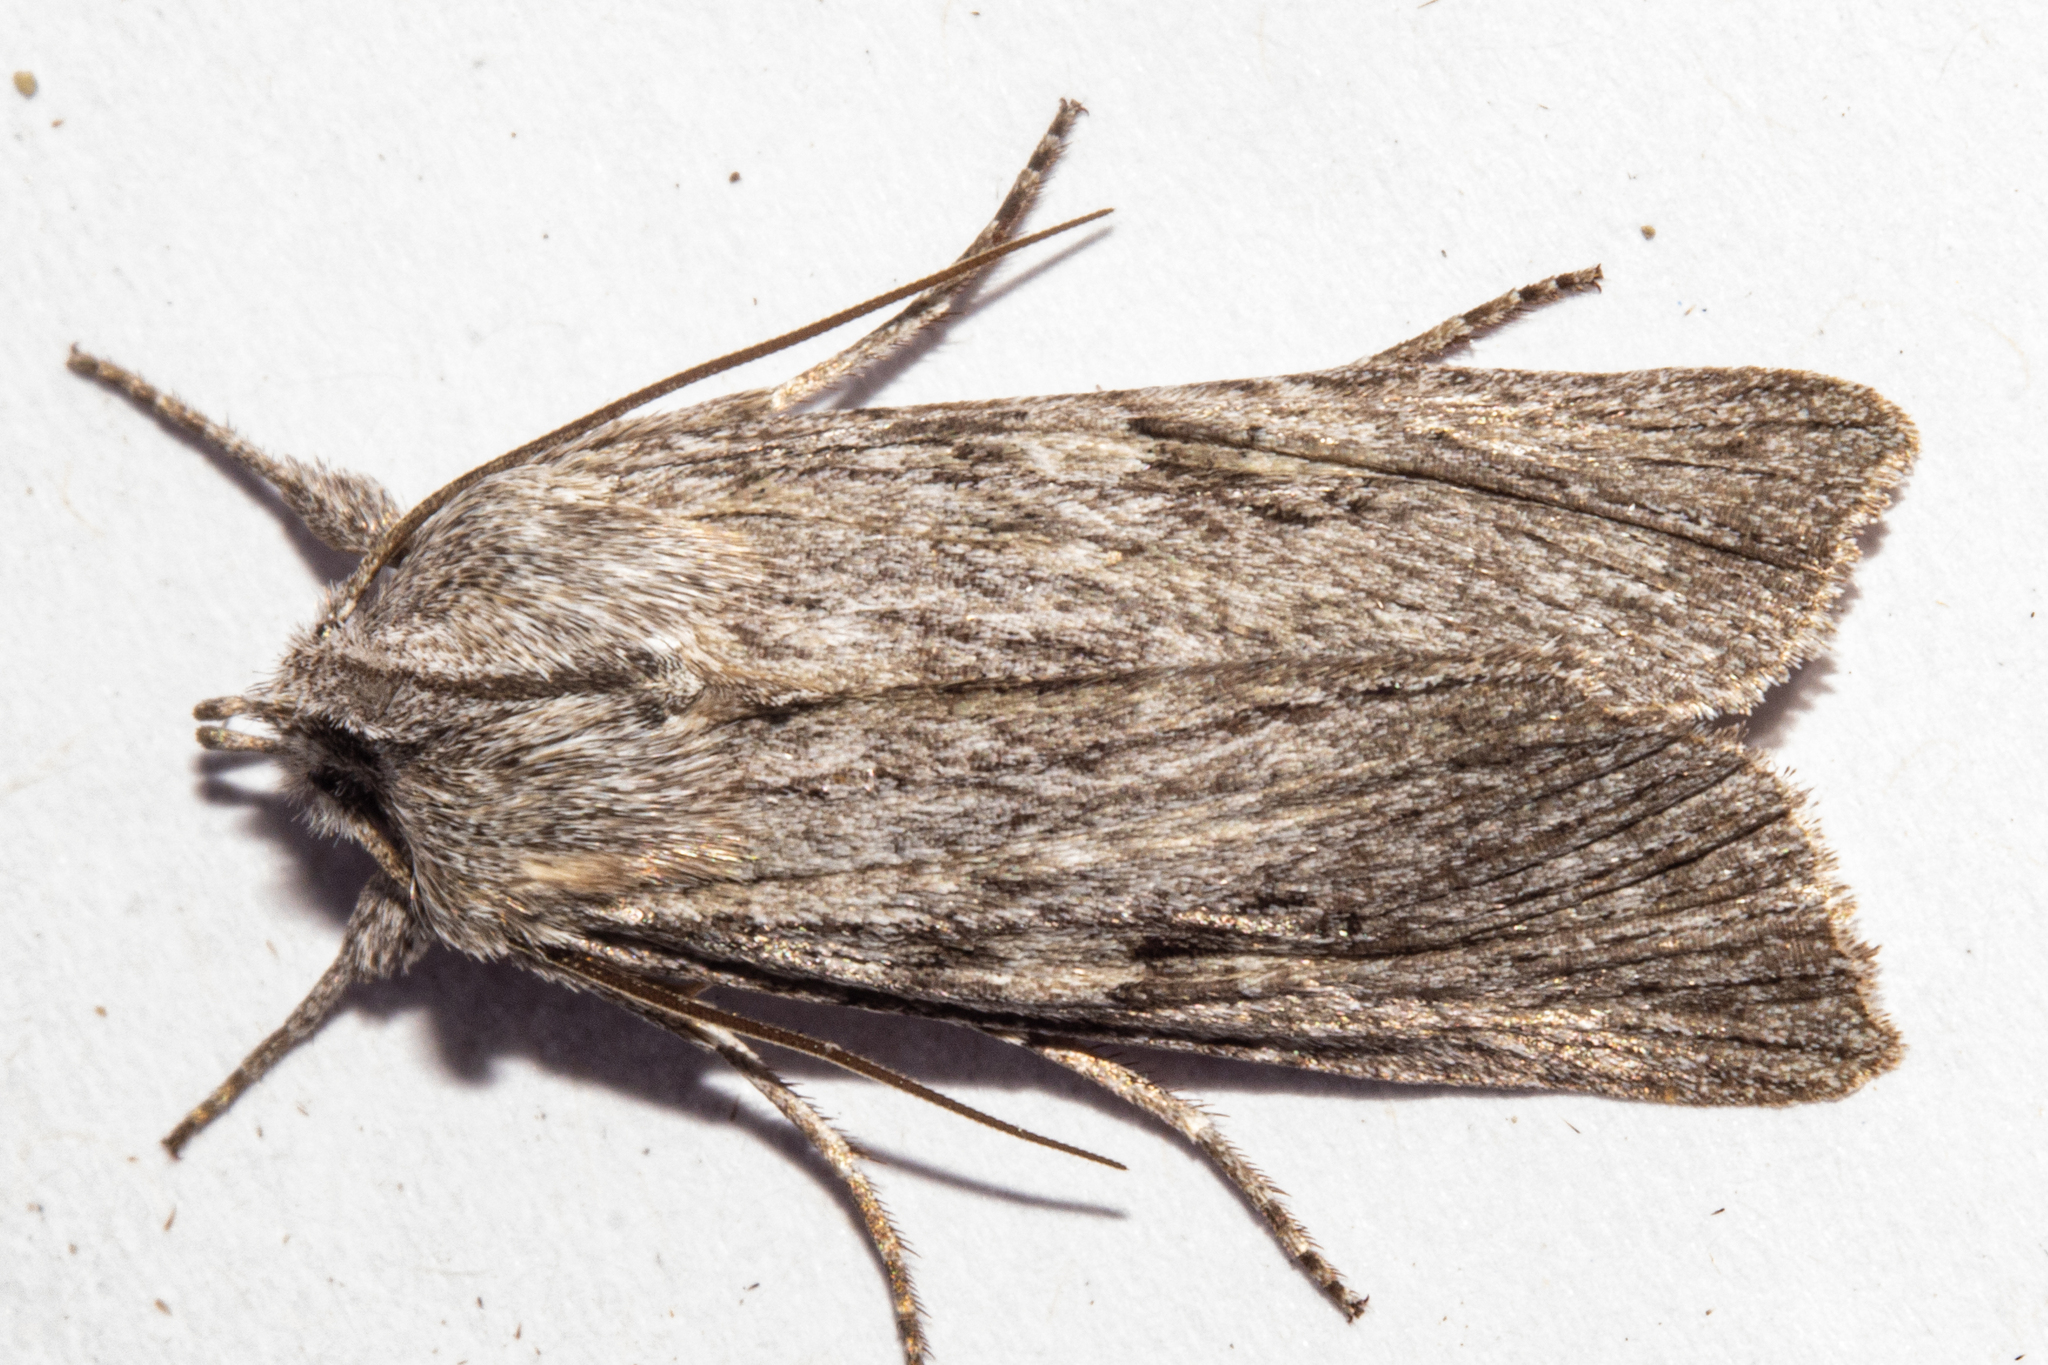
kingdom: Animalia
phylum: Arthropoda
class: Insecta
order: Lepidoptera
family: Noctuidae
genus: Physetica
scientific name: Physetica phricias
